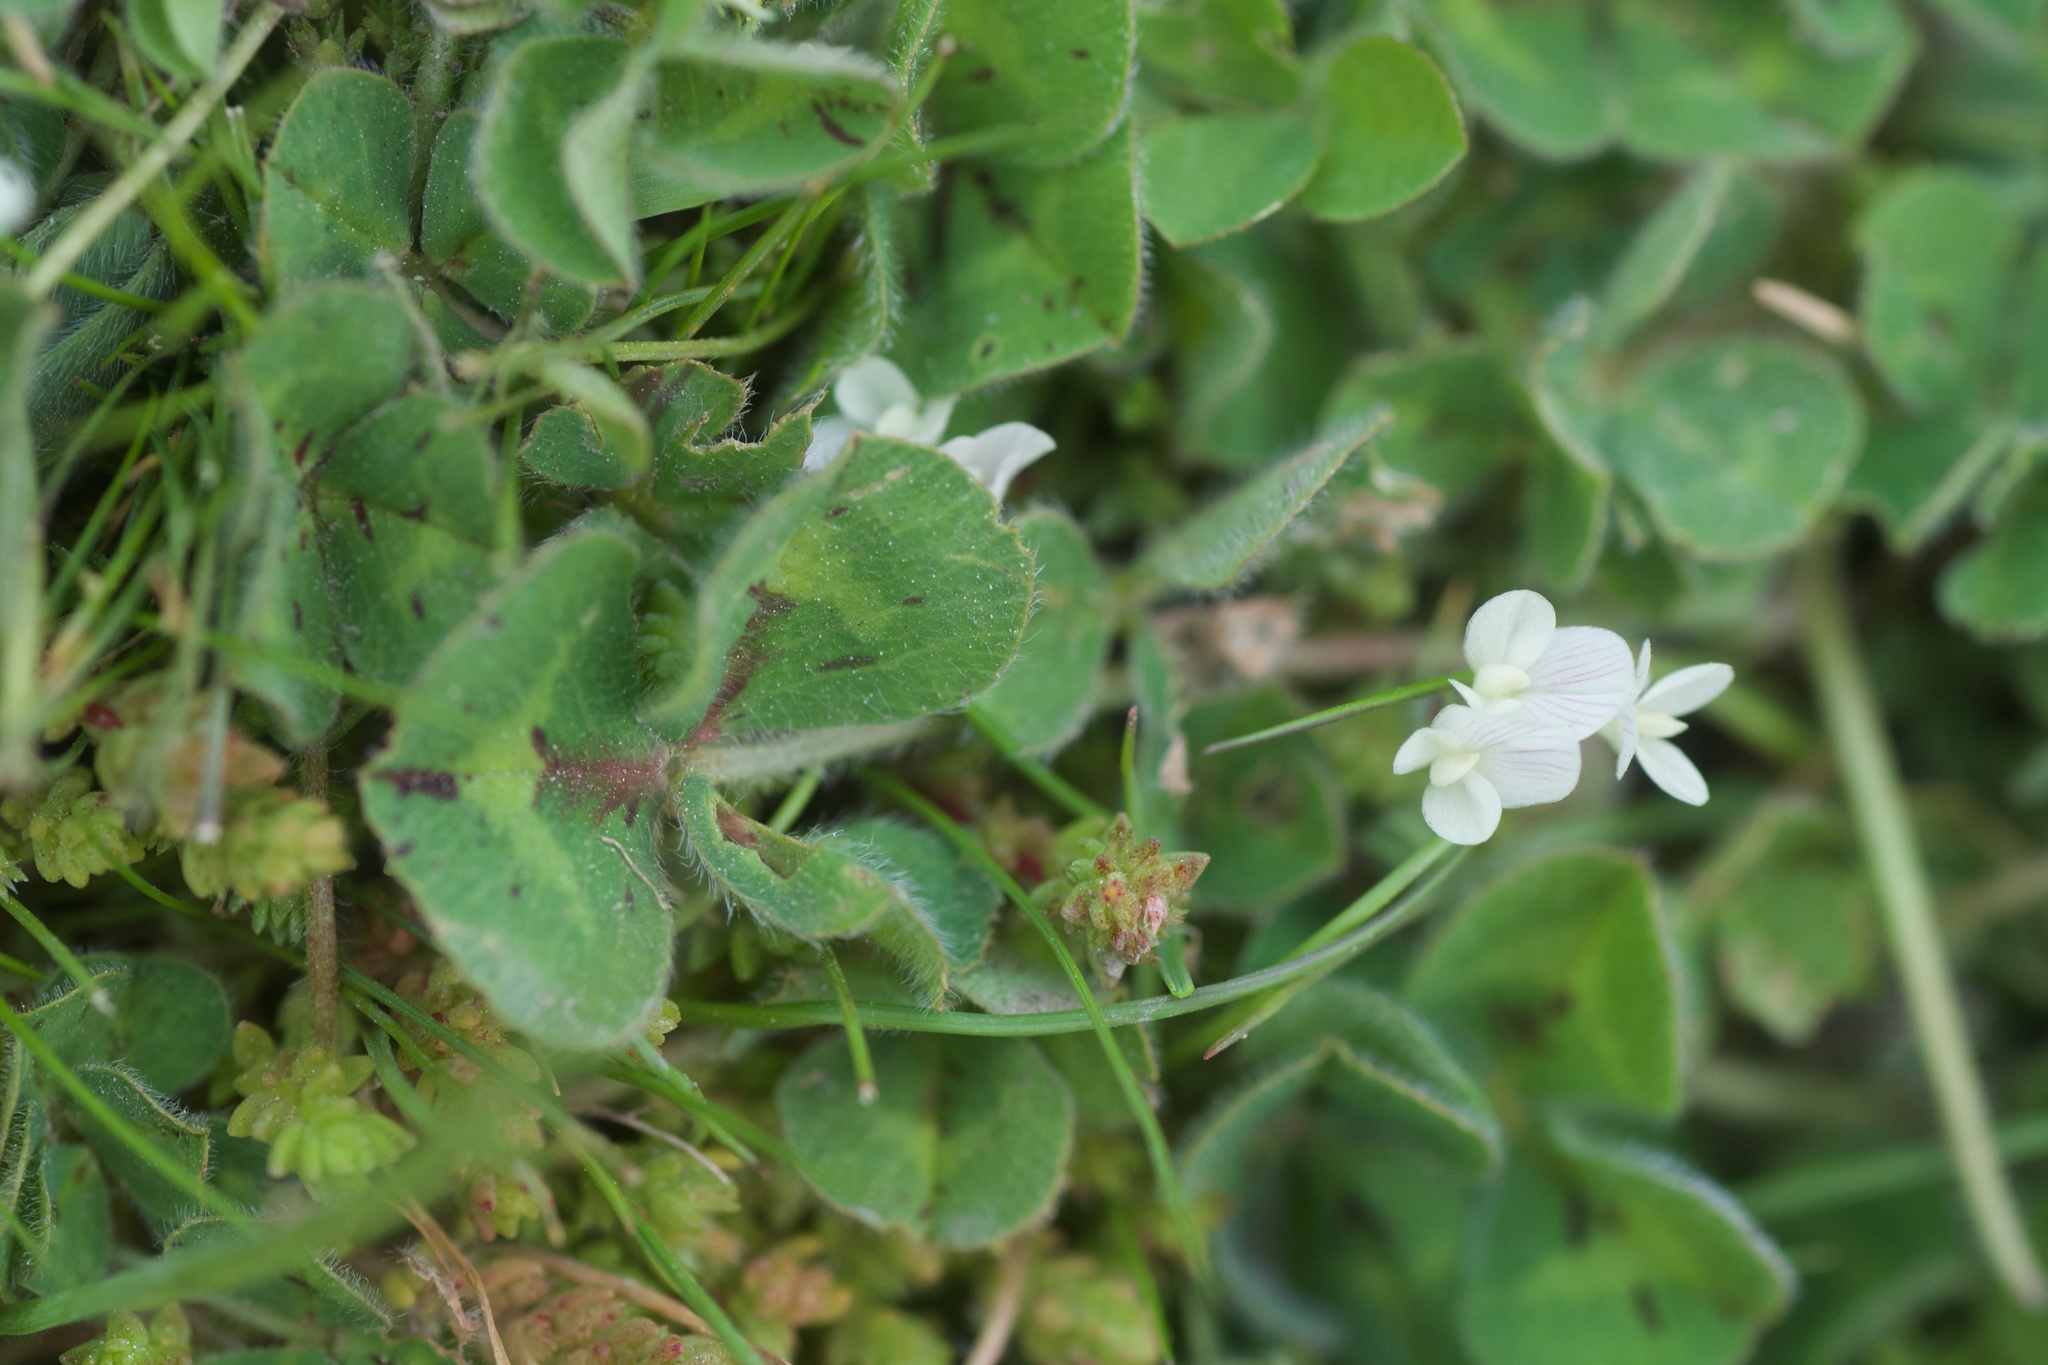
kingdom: Plantae
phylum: Tracheophyta
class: Magnoliopsida
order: Fabales
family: Fabaceae
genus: Trifolium
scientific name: Trifolium subterraneum
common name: Subterranean clover
